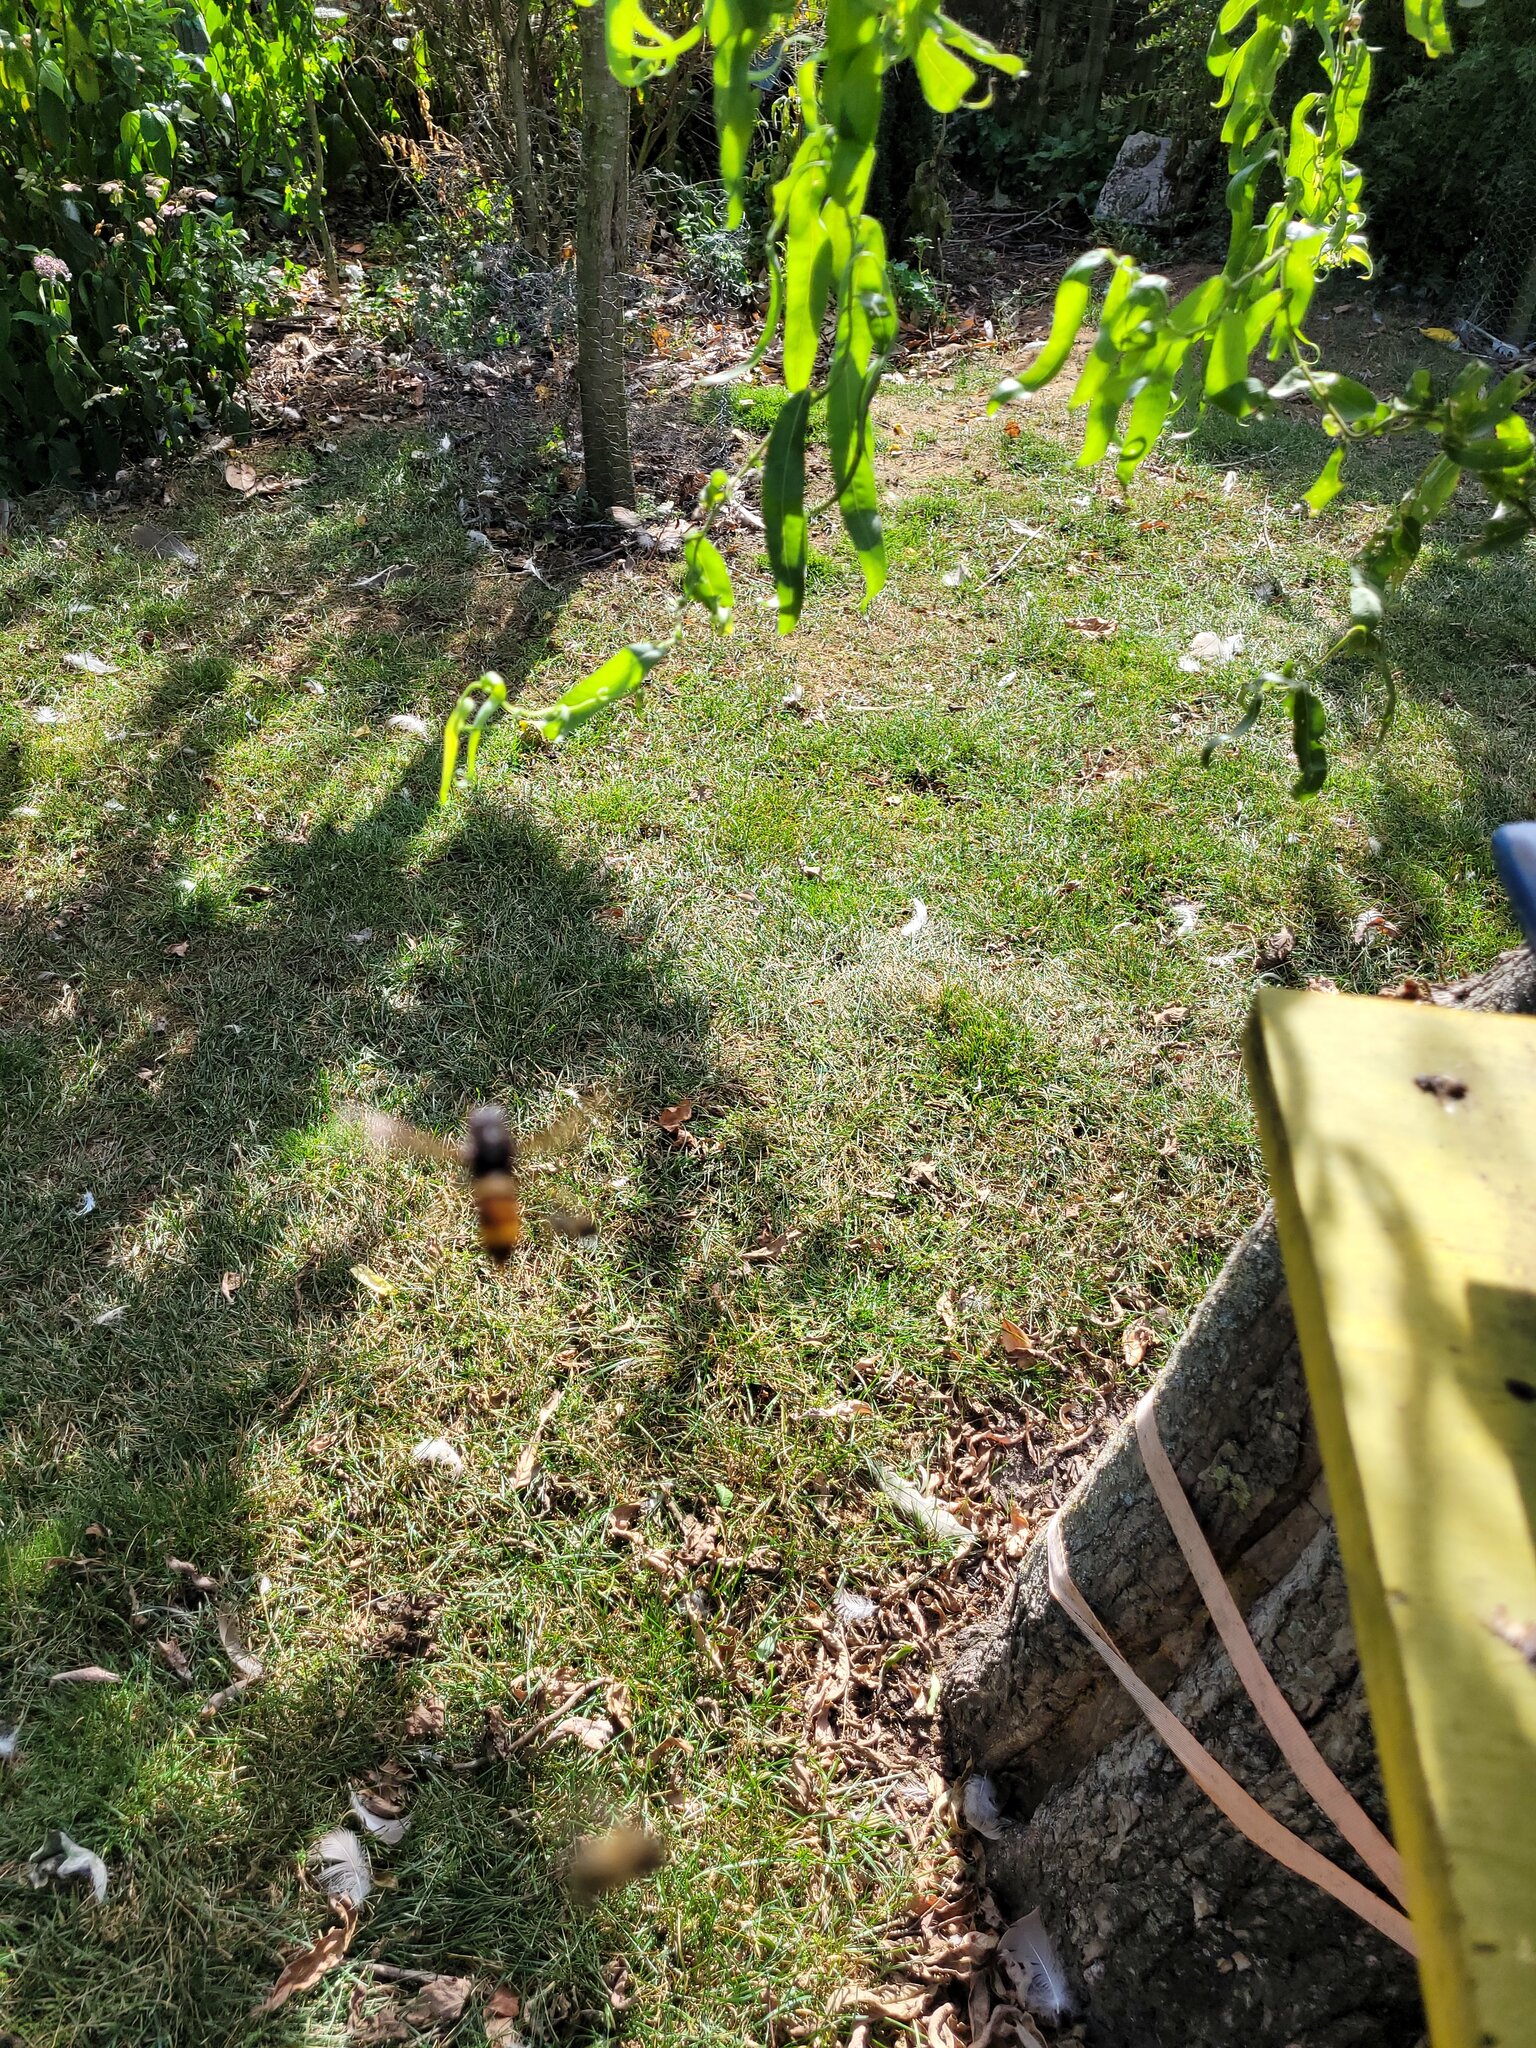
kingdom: Animalia
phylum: Arthropoda
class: Insecta
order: Hymenoptera
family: Vespidae
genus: Vespa
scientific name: Vespa velutina
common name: Asian hornet
